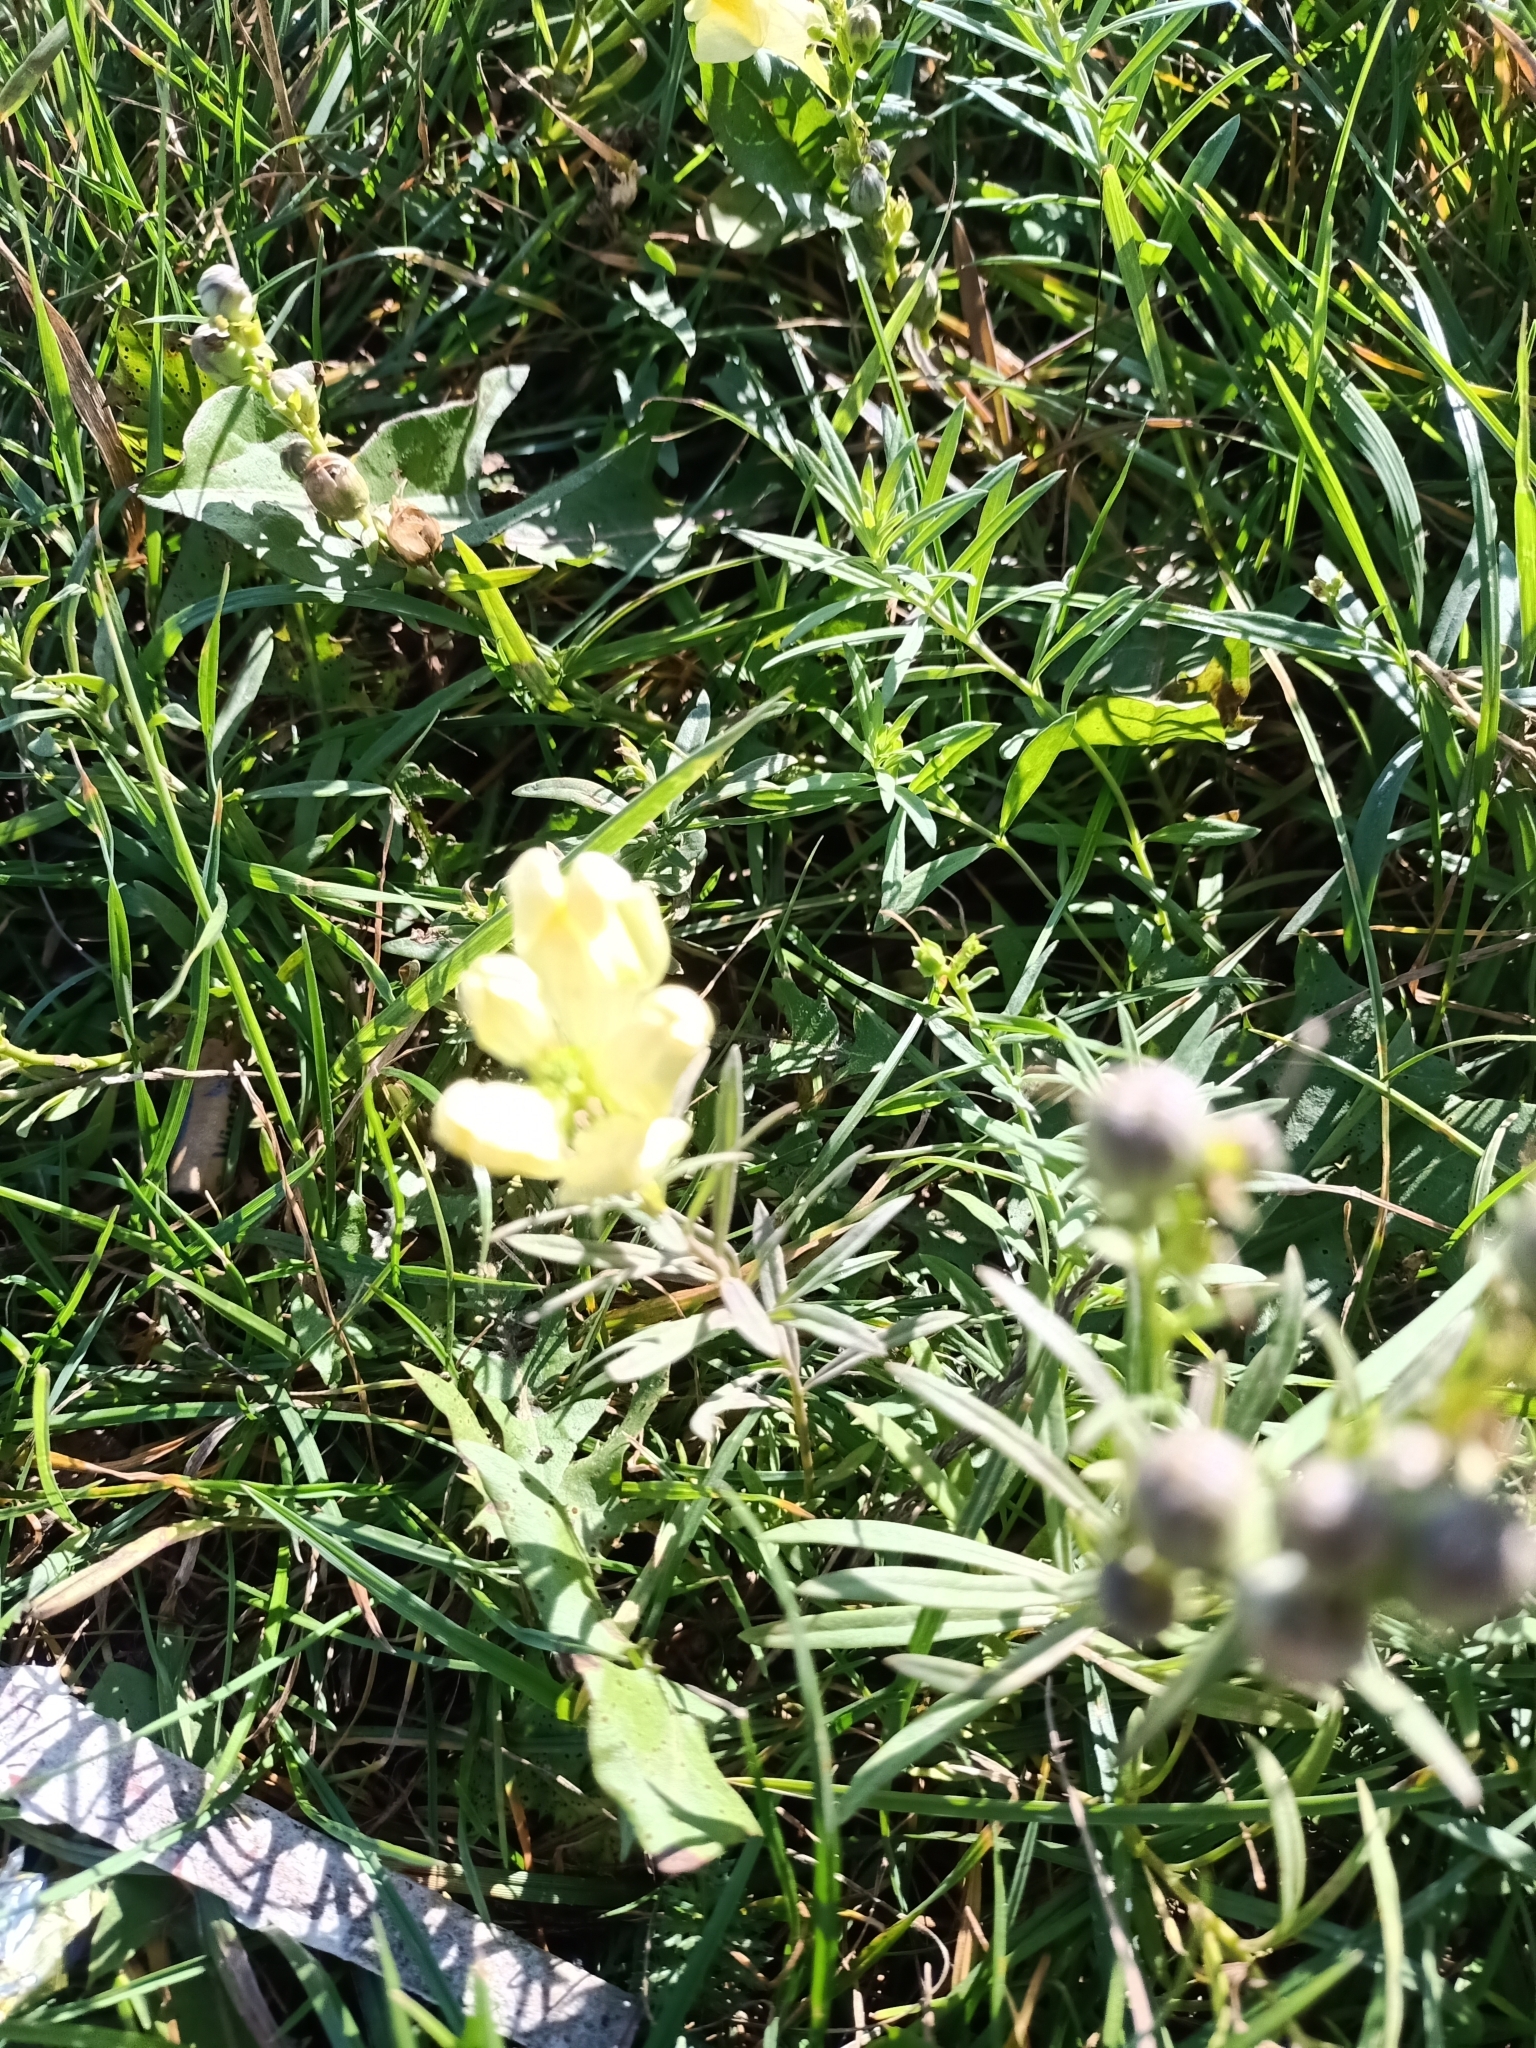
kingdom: Plantae
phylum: Tracheophyta
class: Magnoliopsida
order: Lamiales
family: Plantaginaceae
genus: Linaria
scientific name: Linaria vulgaris
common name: Butter and eggs
